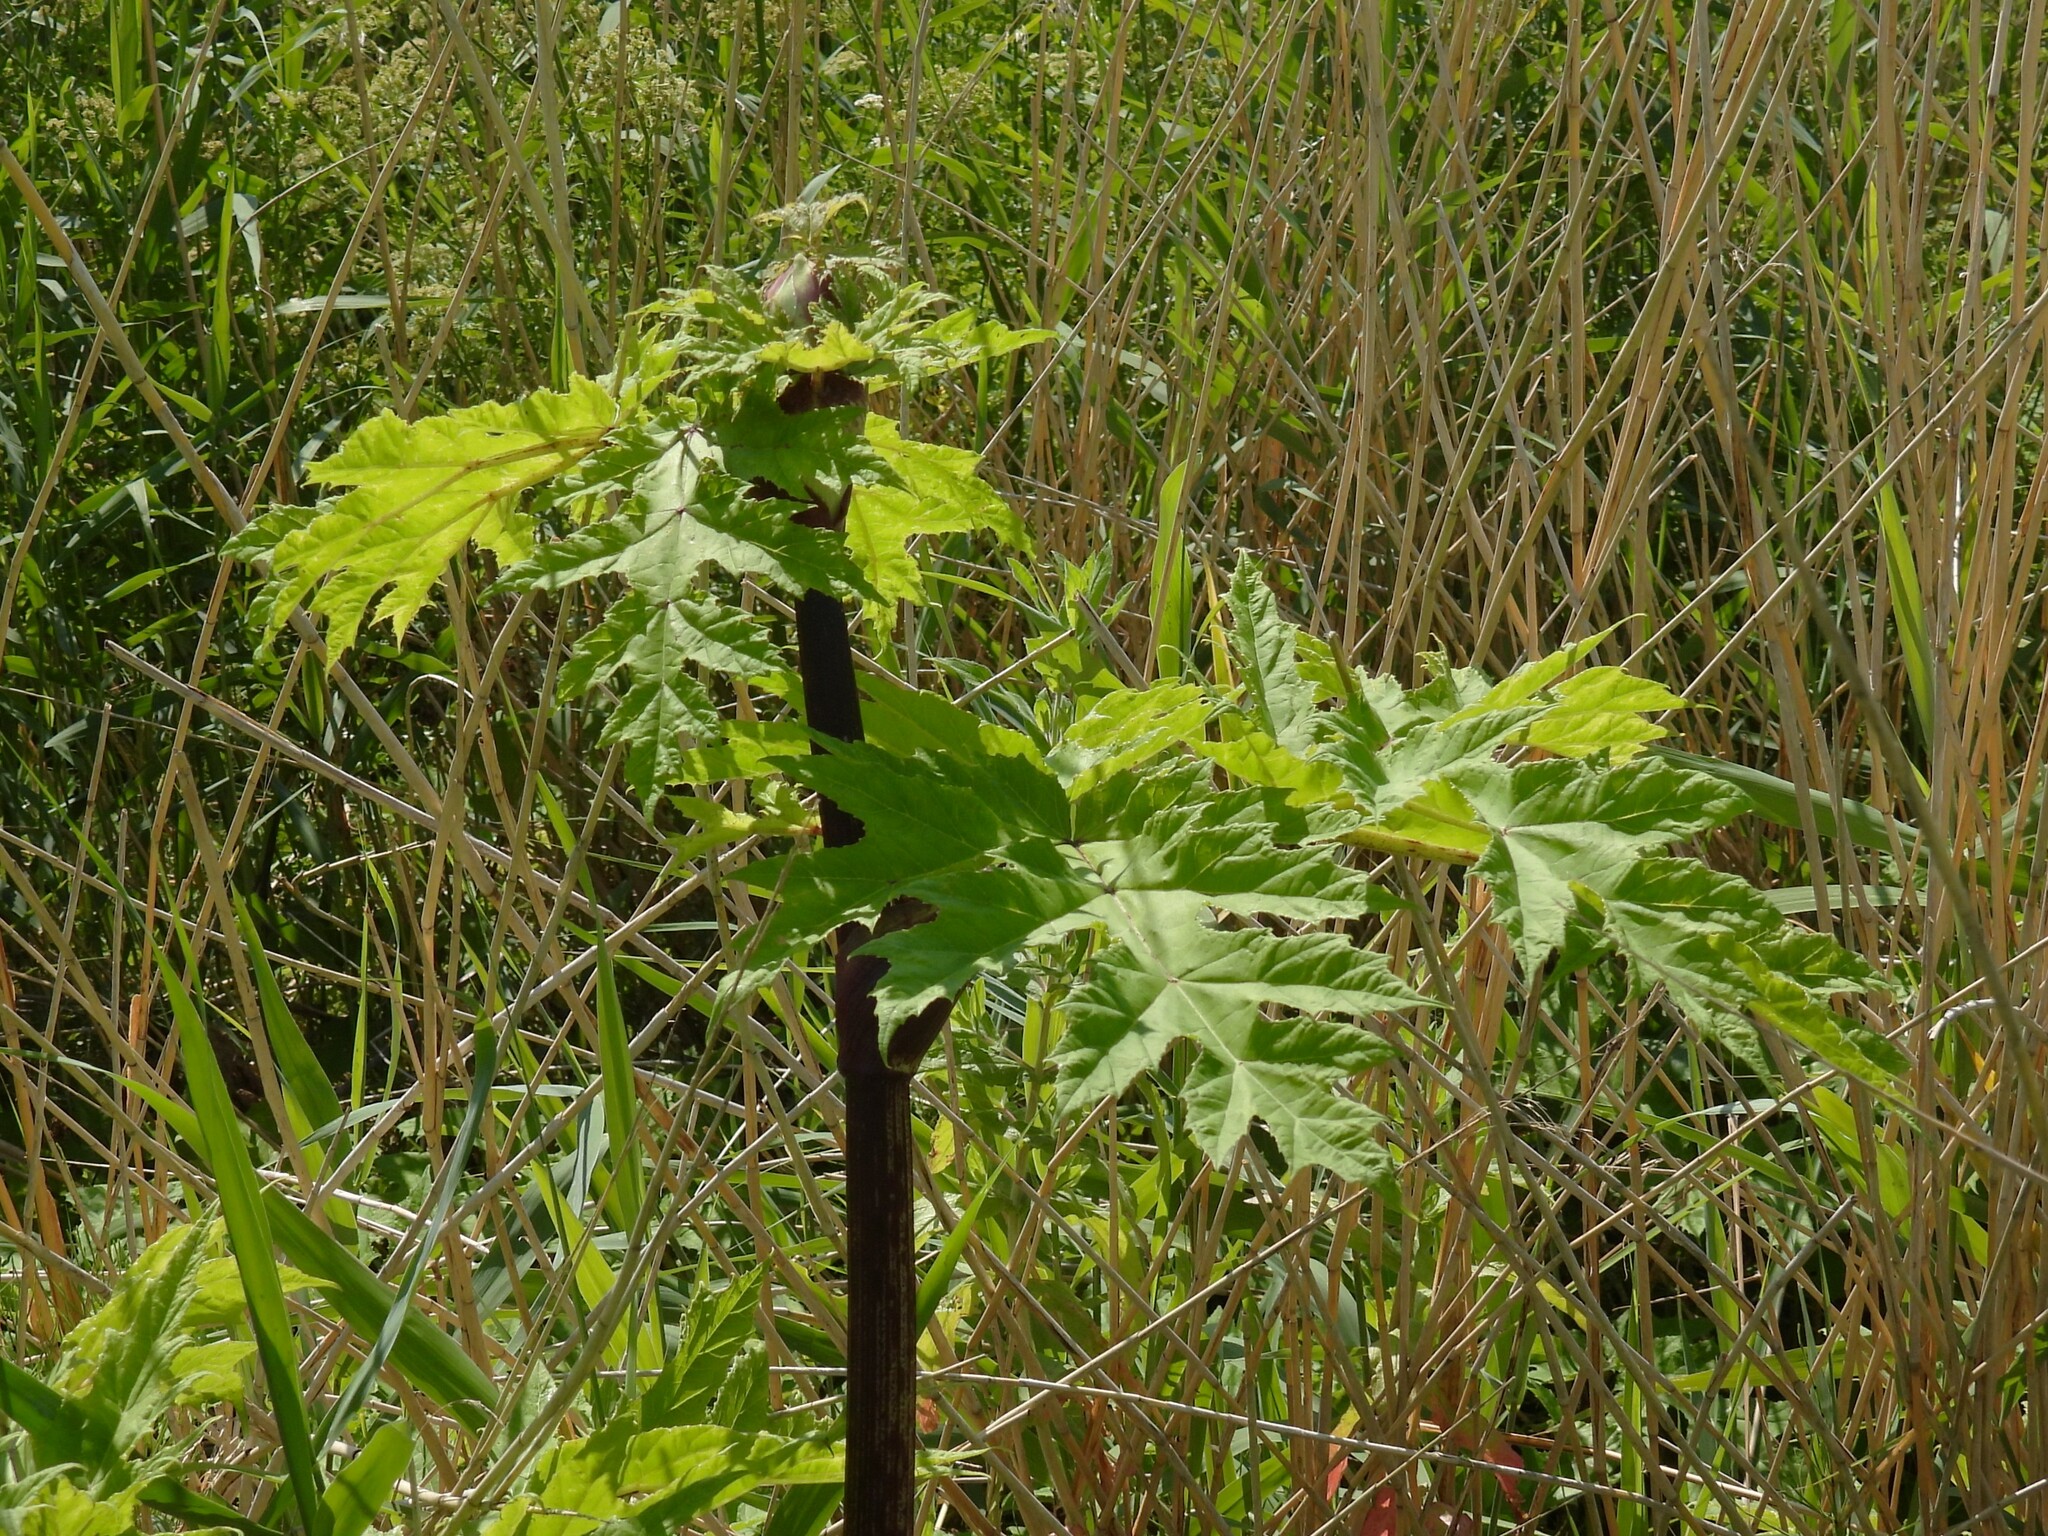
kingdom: Plantae
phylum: Tracheophyta
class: Magnoliopsida
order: Apiales
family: Apiaceae
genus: Heracleum
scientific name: Heracleum mantegazzianum
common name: Giant hogweed
